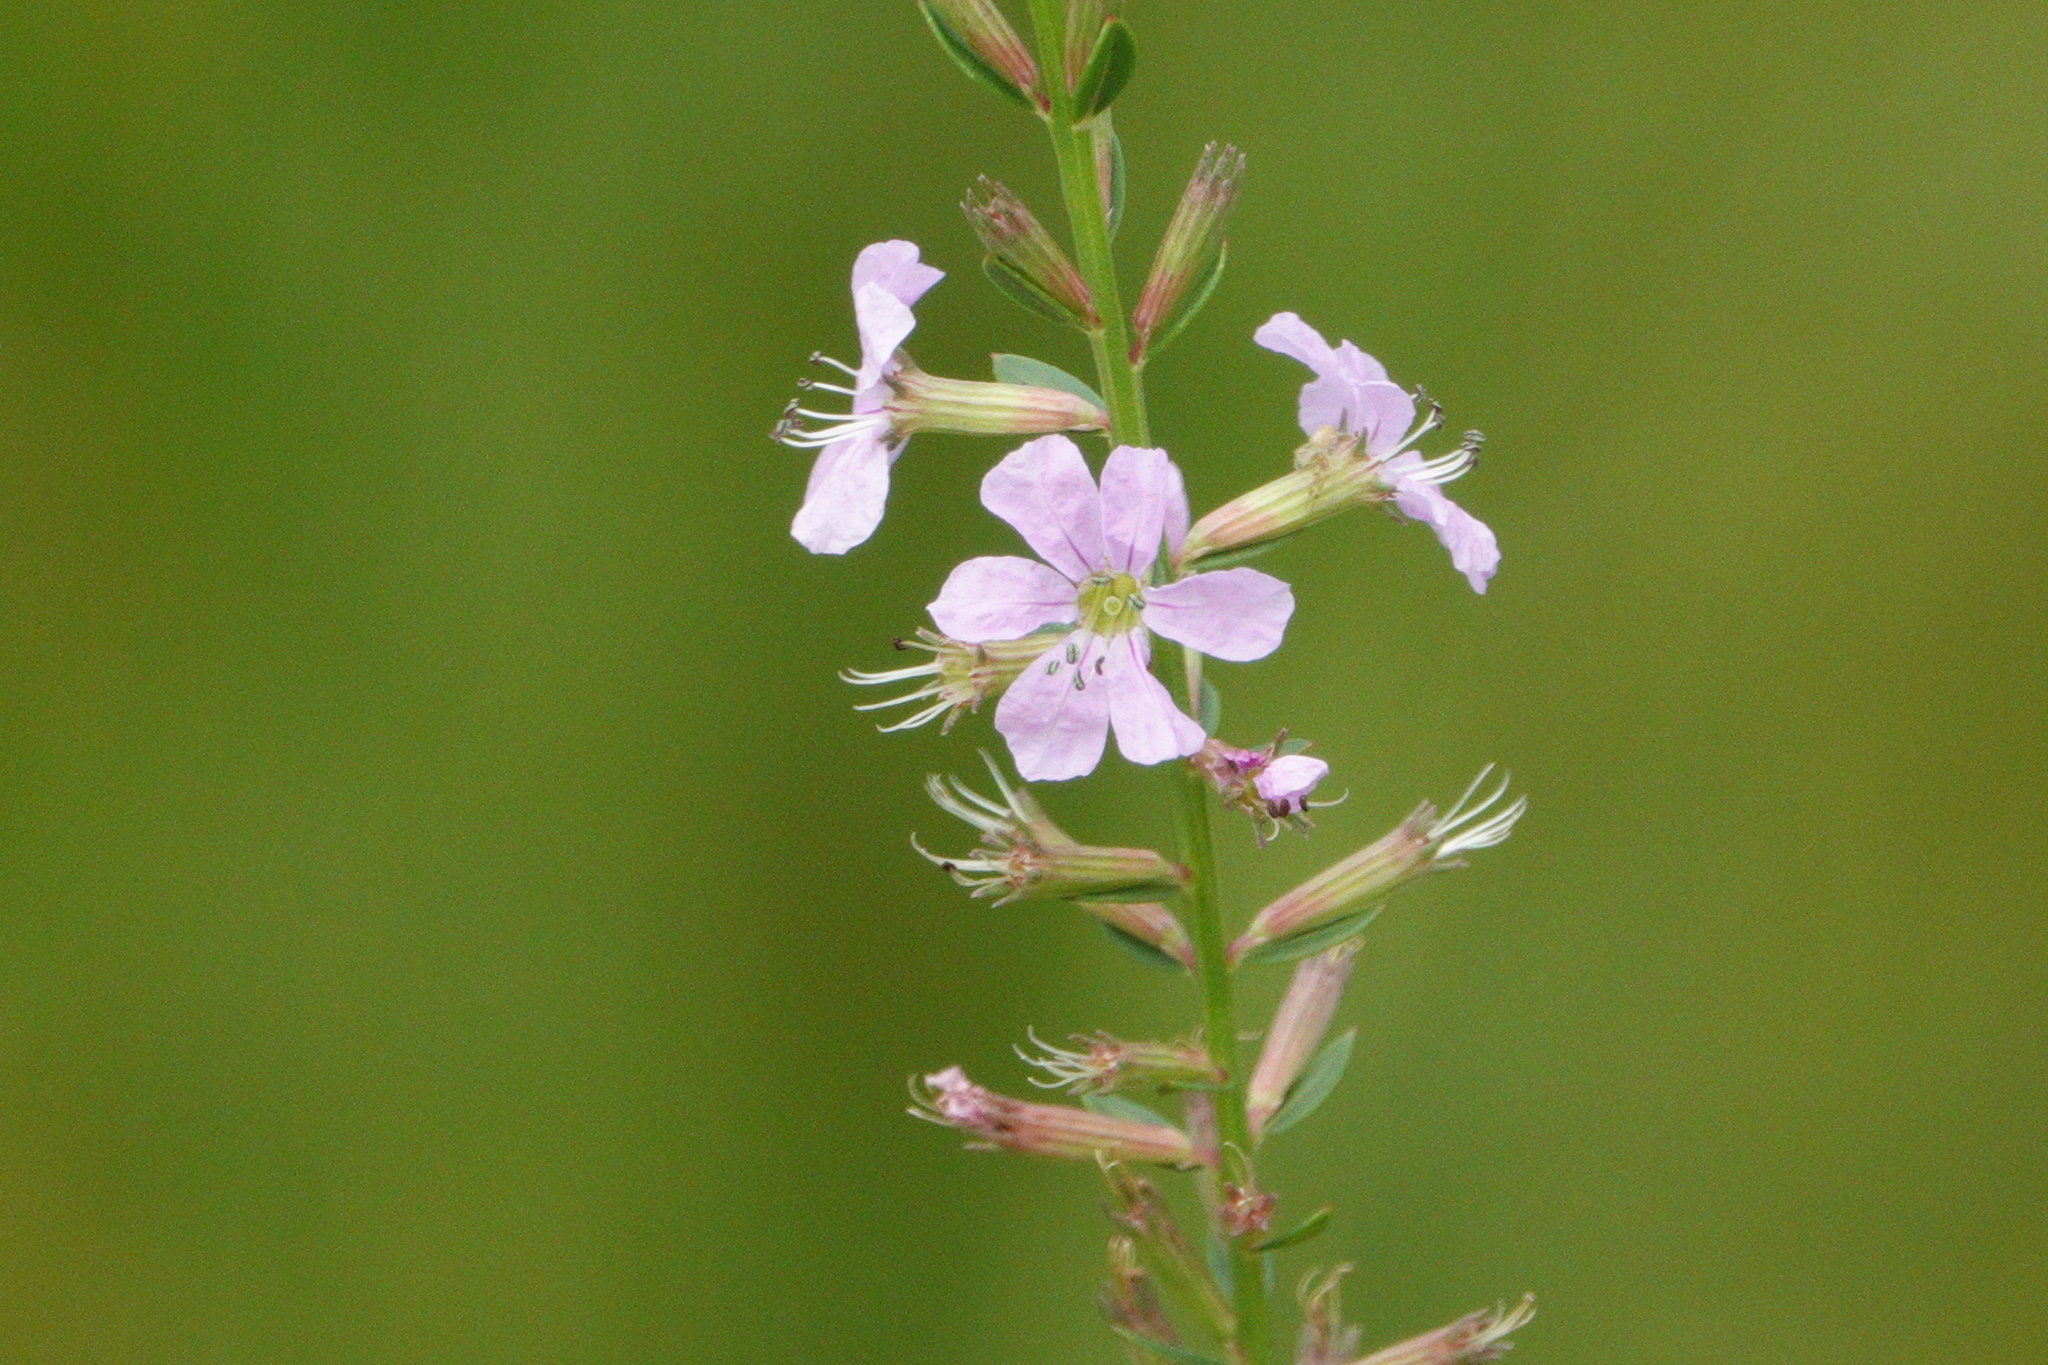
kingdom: Plantae
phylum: Tracheophyta
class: Magnoliopsida
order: Myrtales
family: Lythraceae
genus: Lythrum
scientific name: Lythrum alatum
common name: Winged loosestrife
